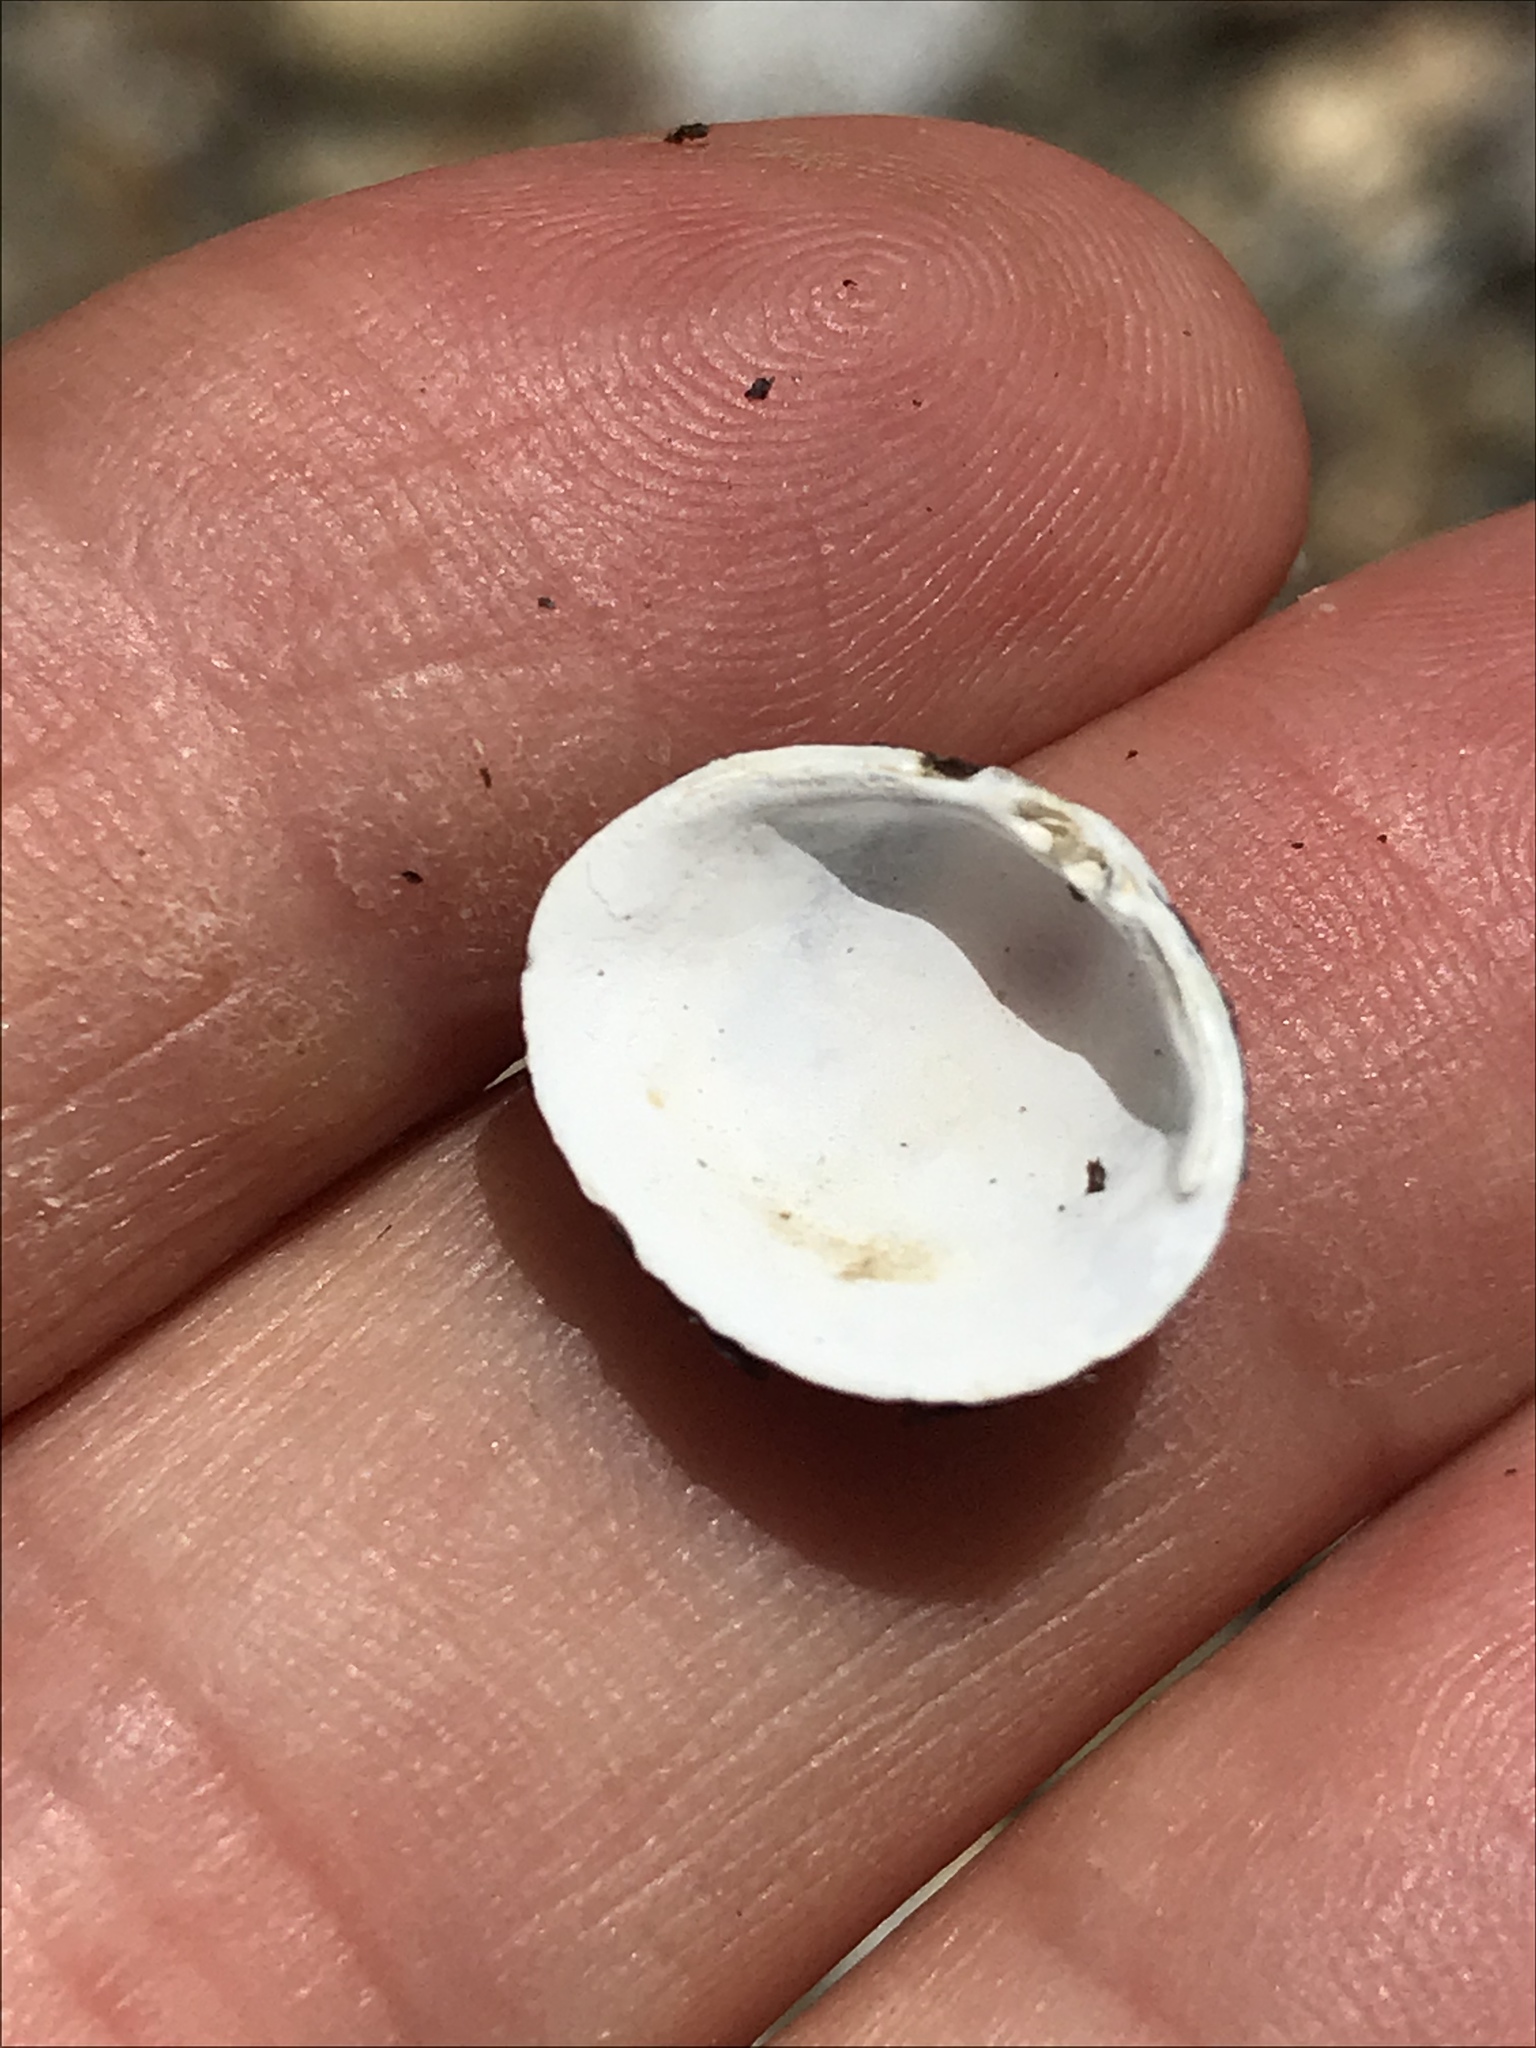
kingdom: Animalia
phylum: Mollusca
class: Bivalvia
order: Venerida
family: Cyrenidae
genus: Corbicula
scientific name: Corbicula fluminea
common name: Asian clam
